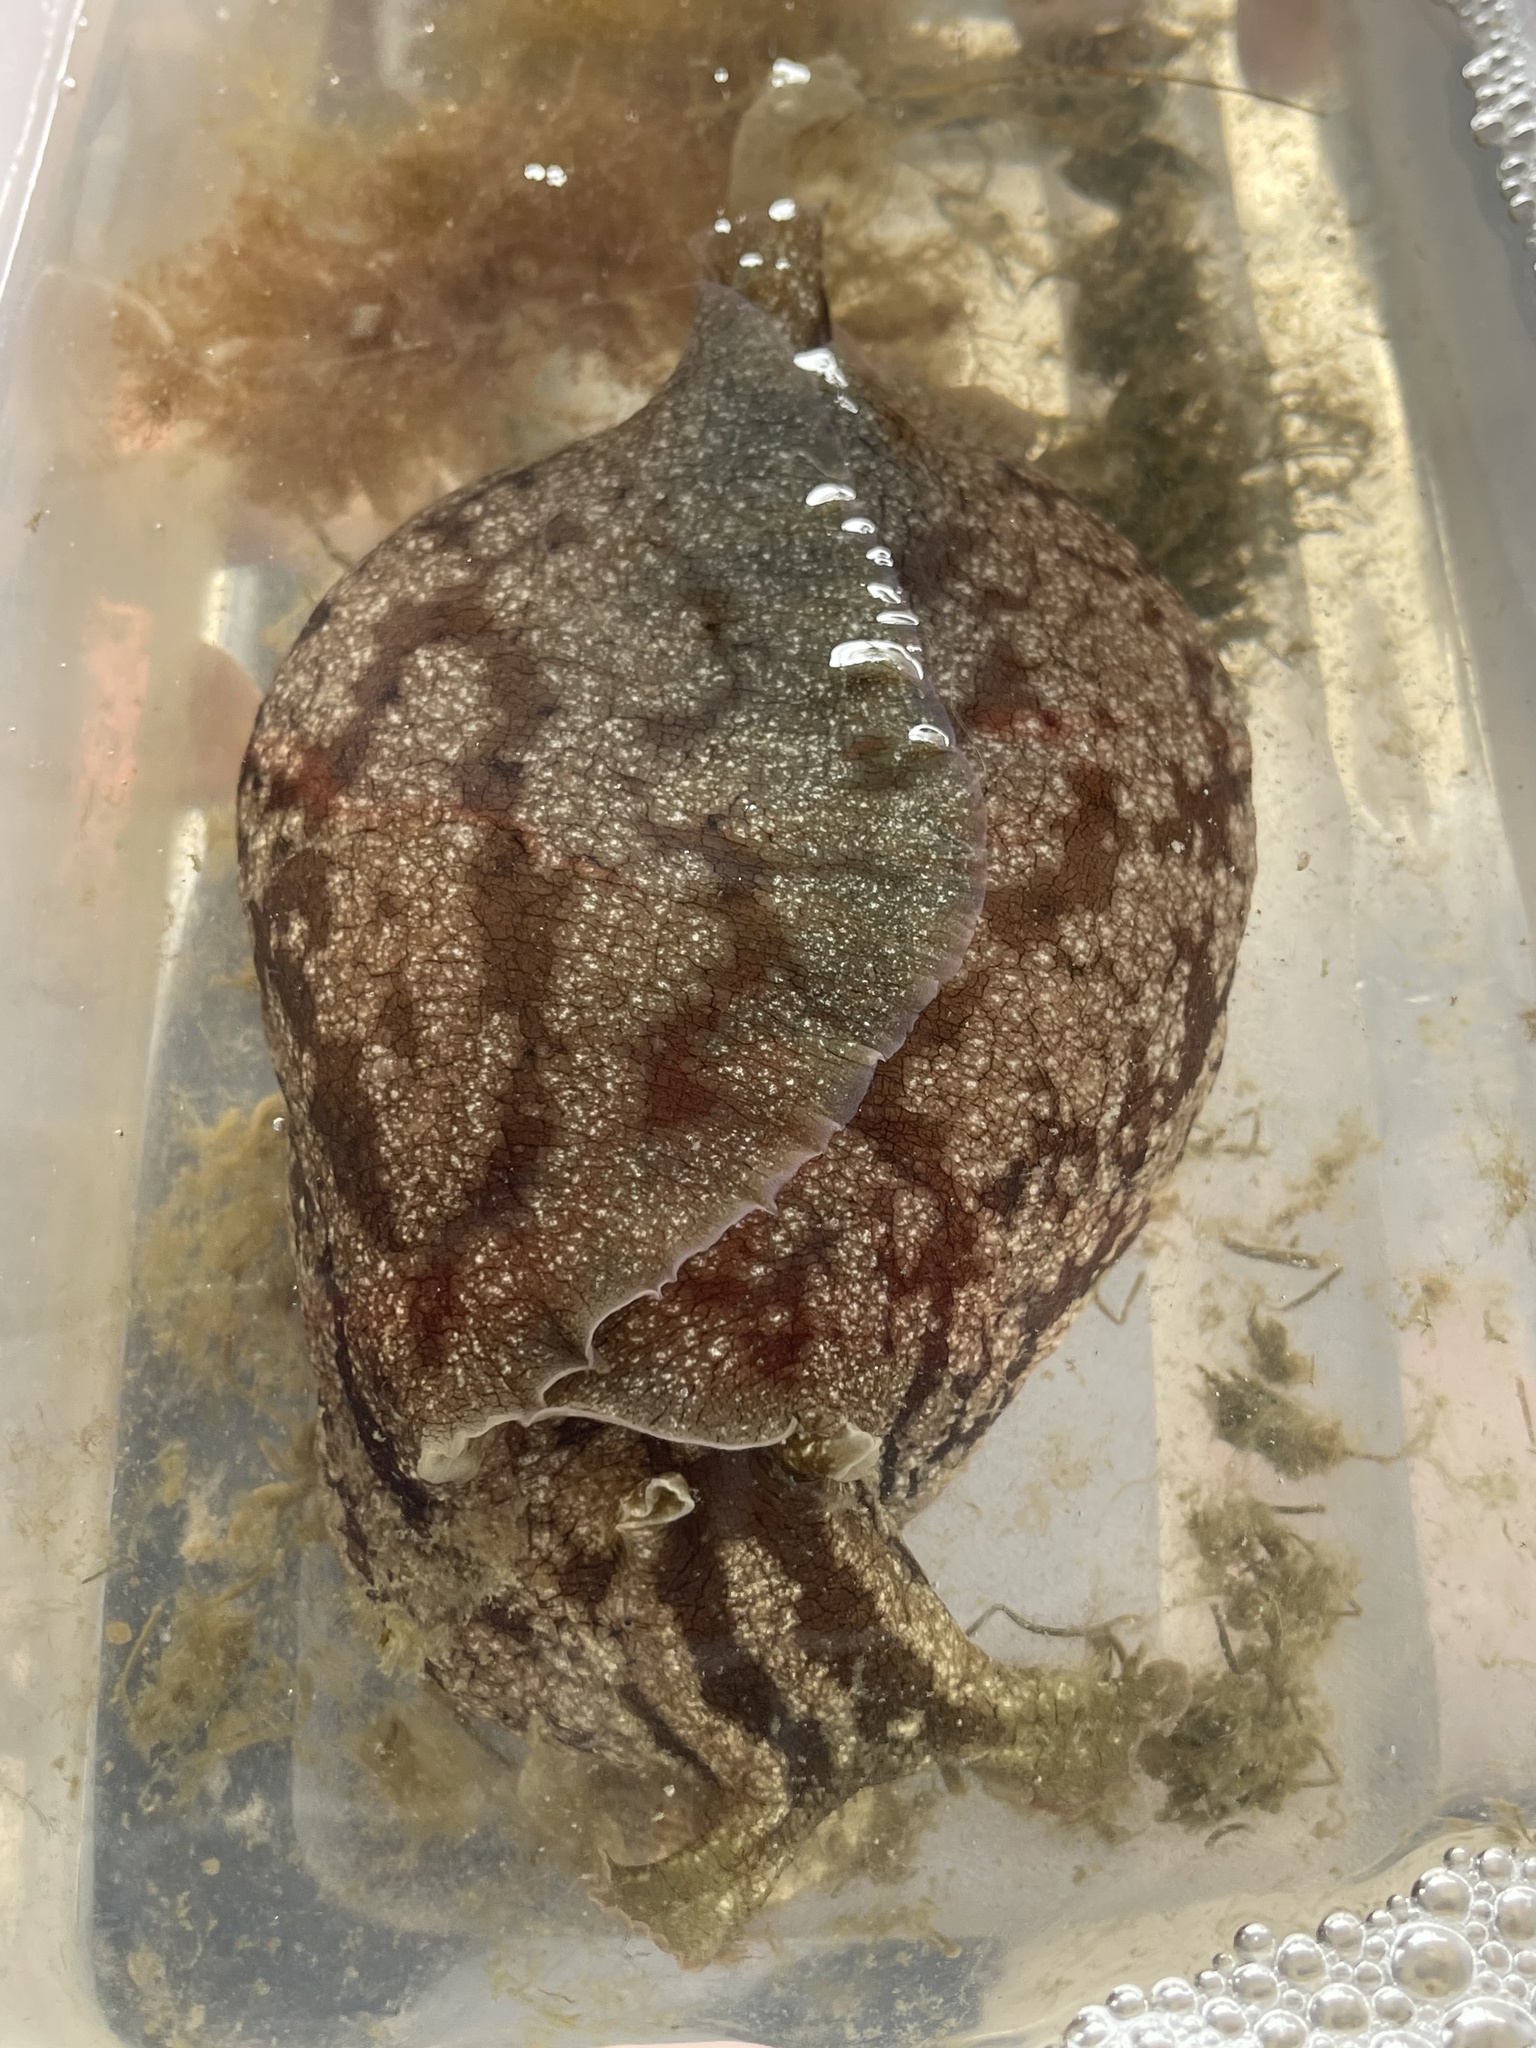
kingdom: Animalia
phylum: Mollusca
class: Gastropoda
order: Aplysiida
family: Aplysiidae
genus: Aplysia
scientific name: Aplysia brasiliana
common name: Mottled seahare
